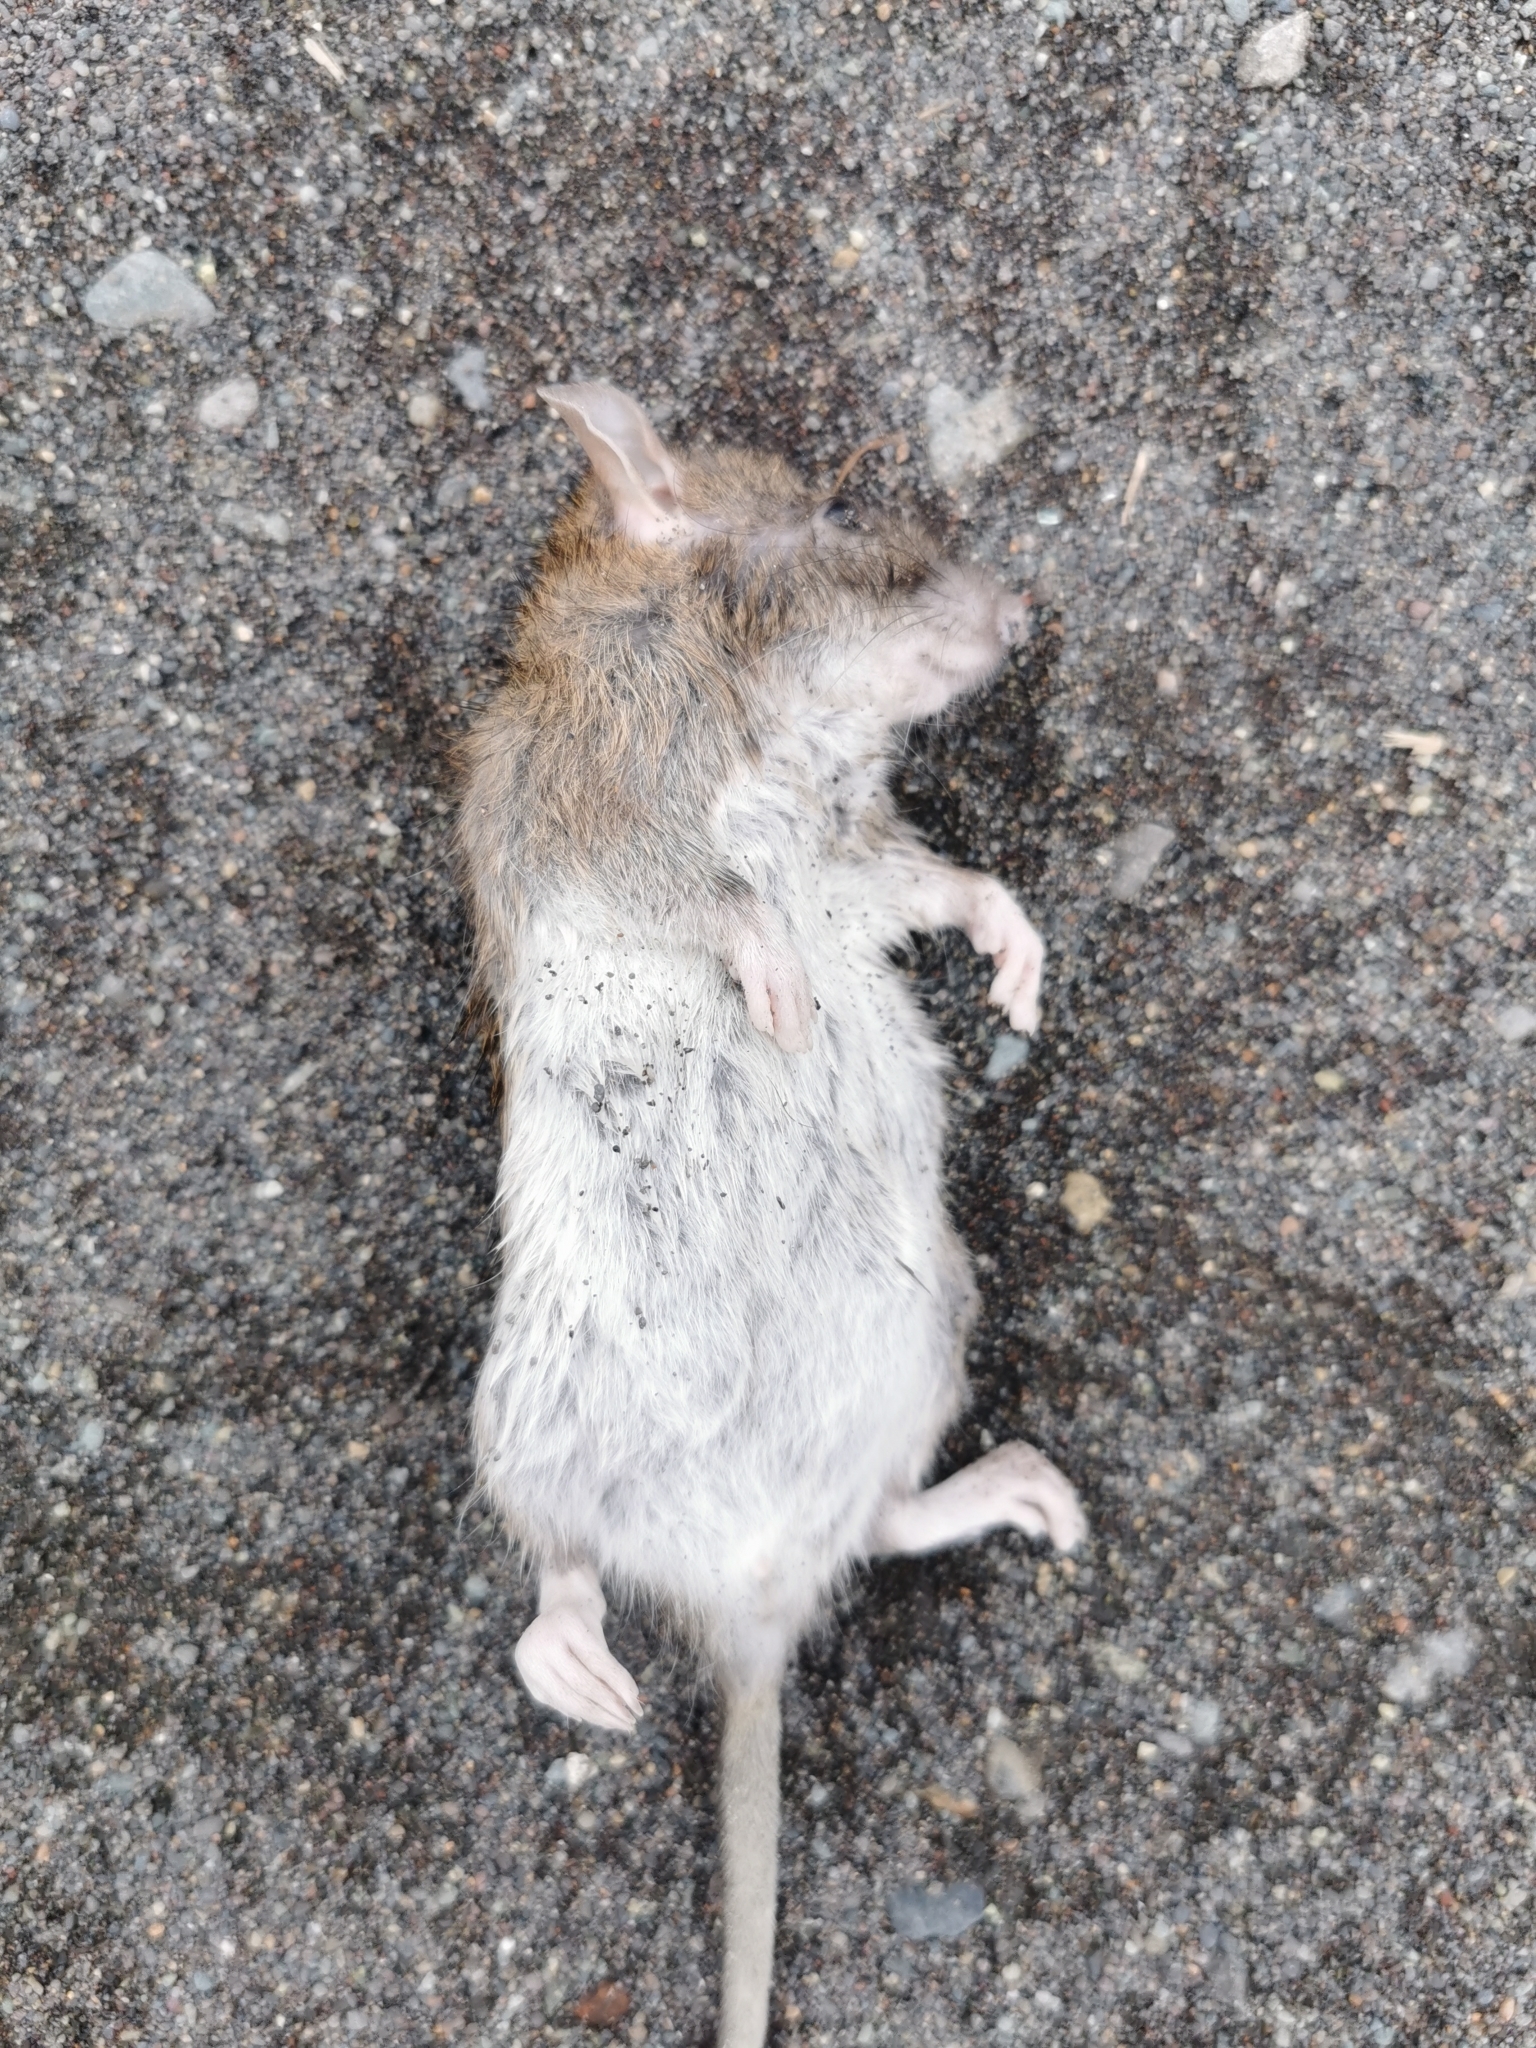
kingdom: Animalia
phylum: Chordata
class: Mammalia
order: Rodentia
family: Muridae
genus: Rattus
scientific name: Rattus norvegicus
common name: Brown rat
